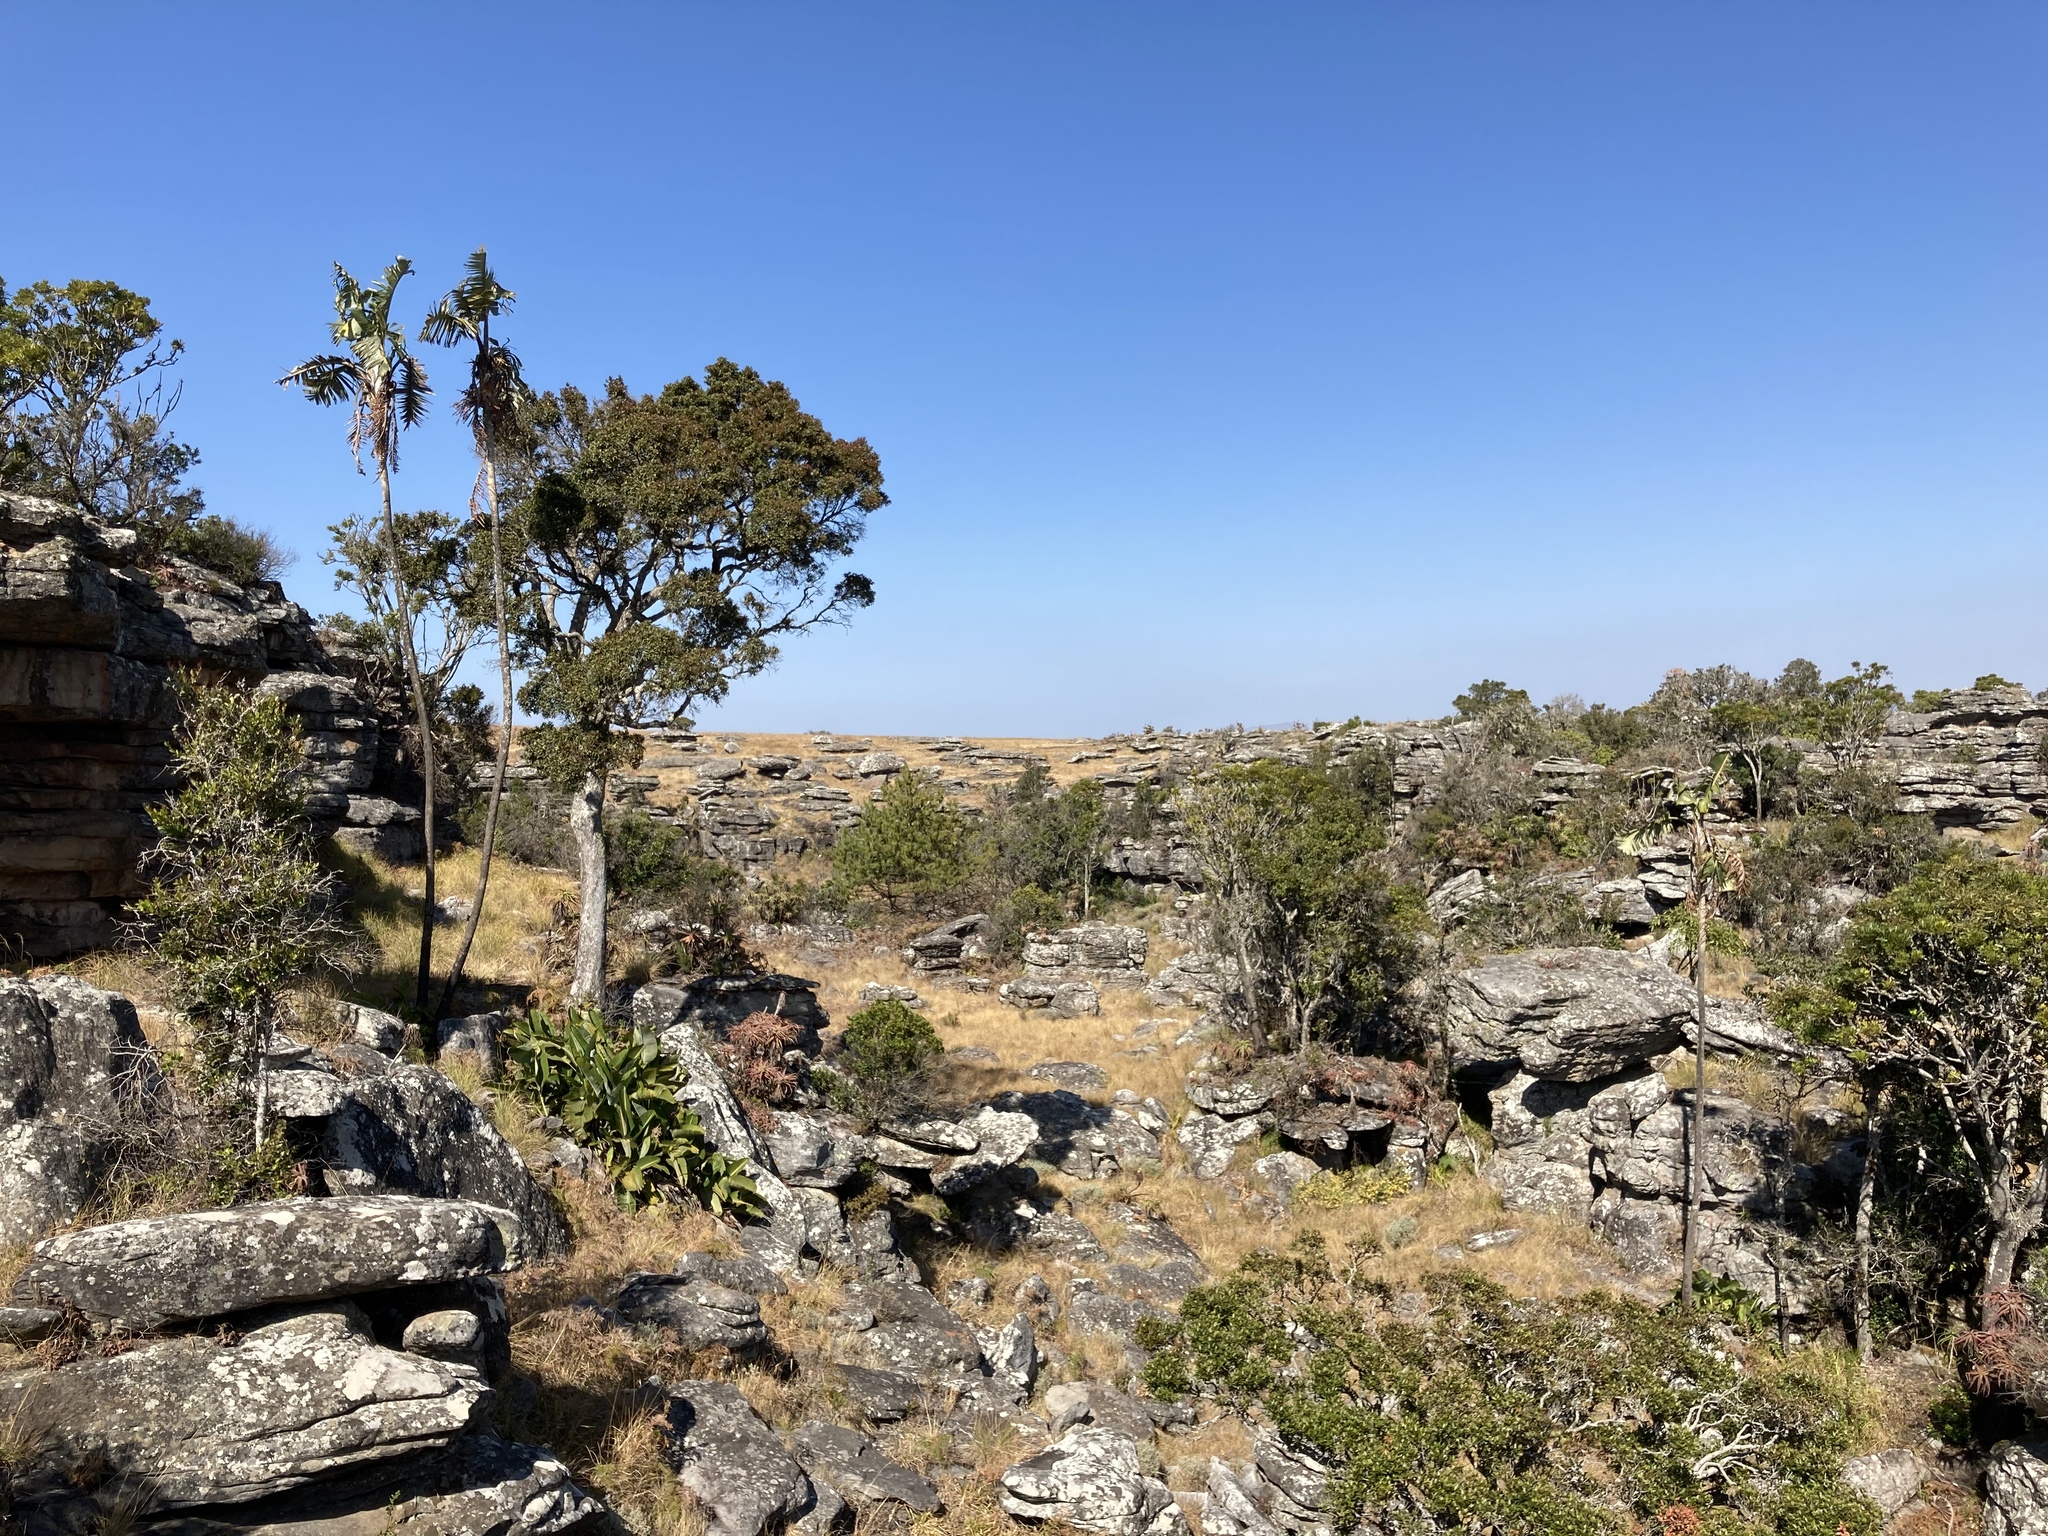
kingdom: Plantae
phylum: Tracheophyta
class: Liliopsida
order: Zingiberales
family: Strelitziaceae
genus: Strelitzia
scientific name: Strelitzia caudata
